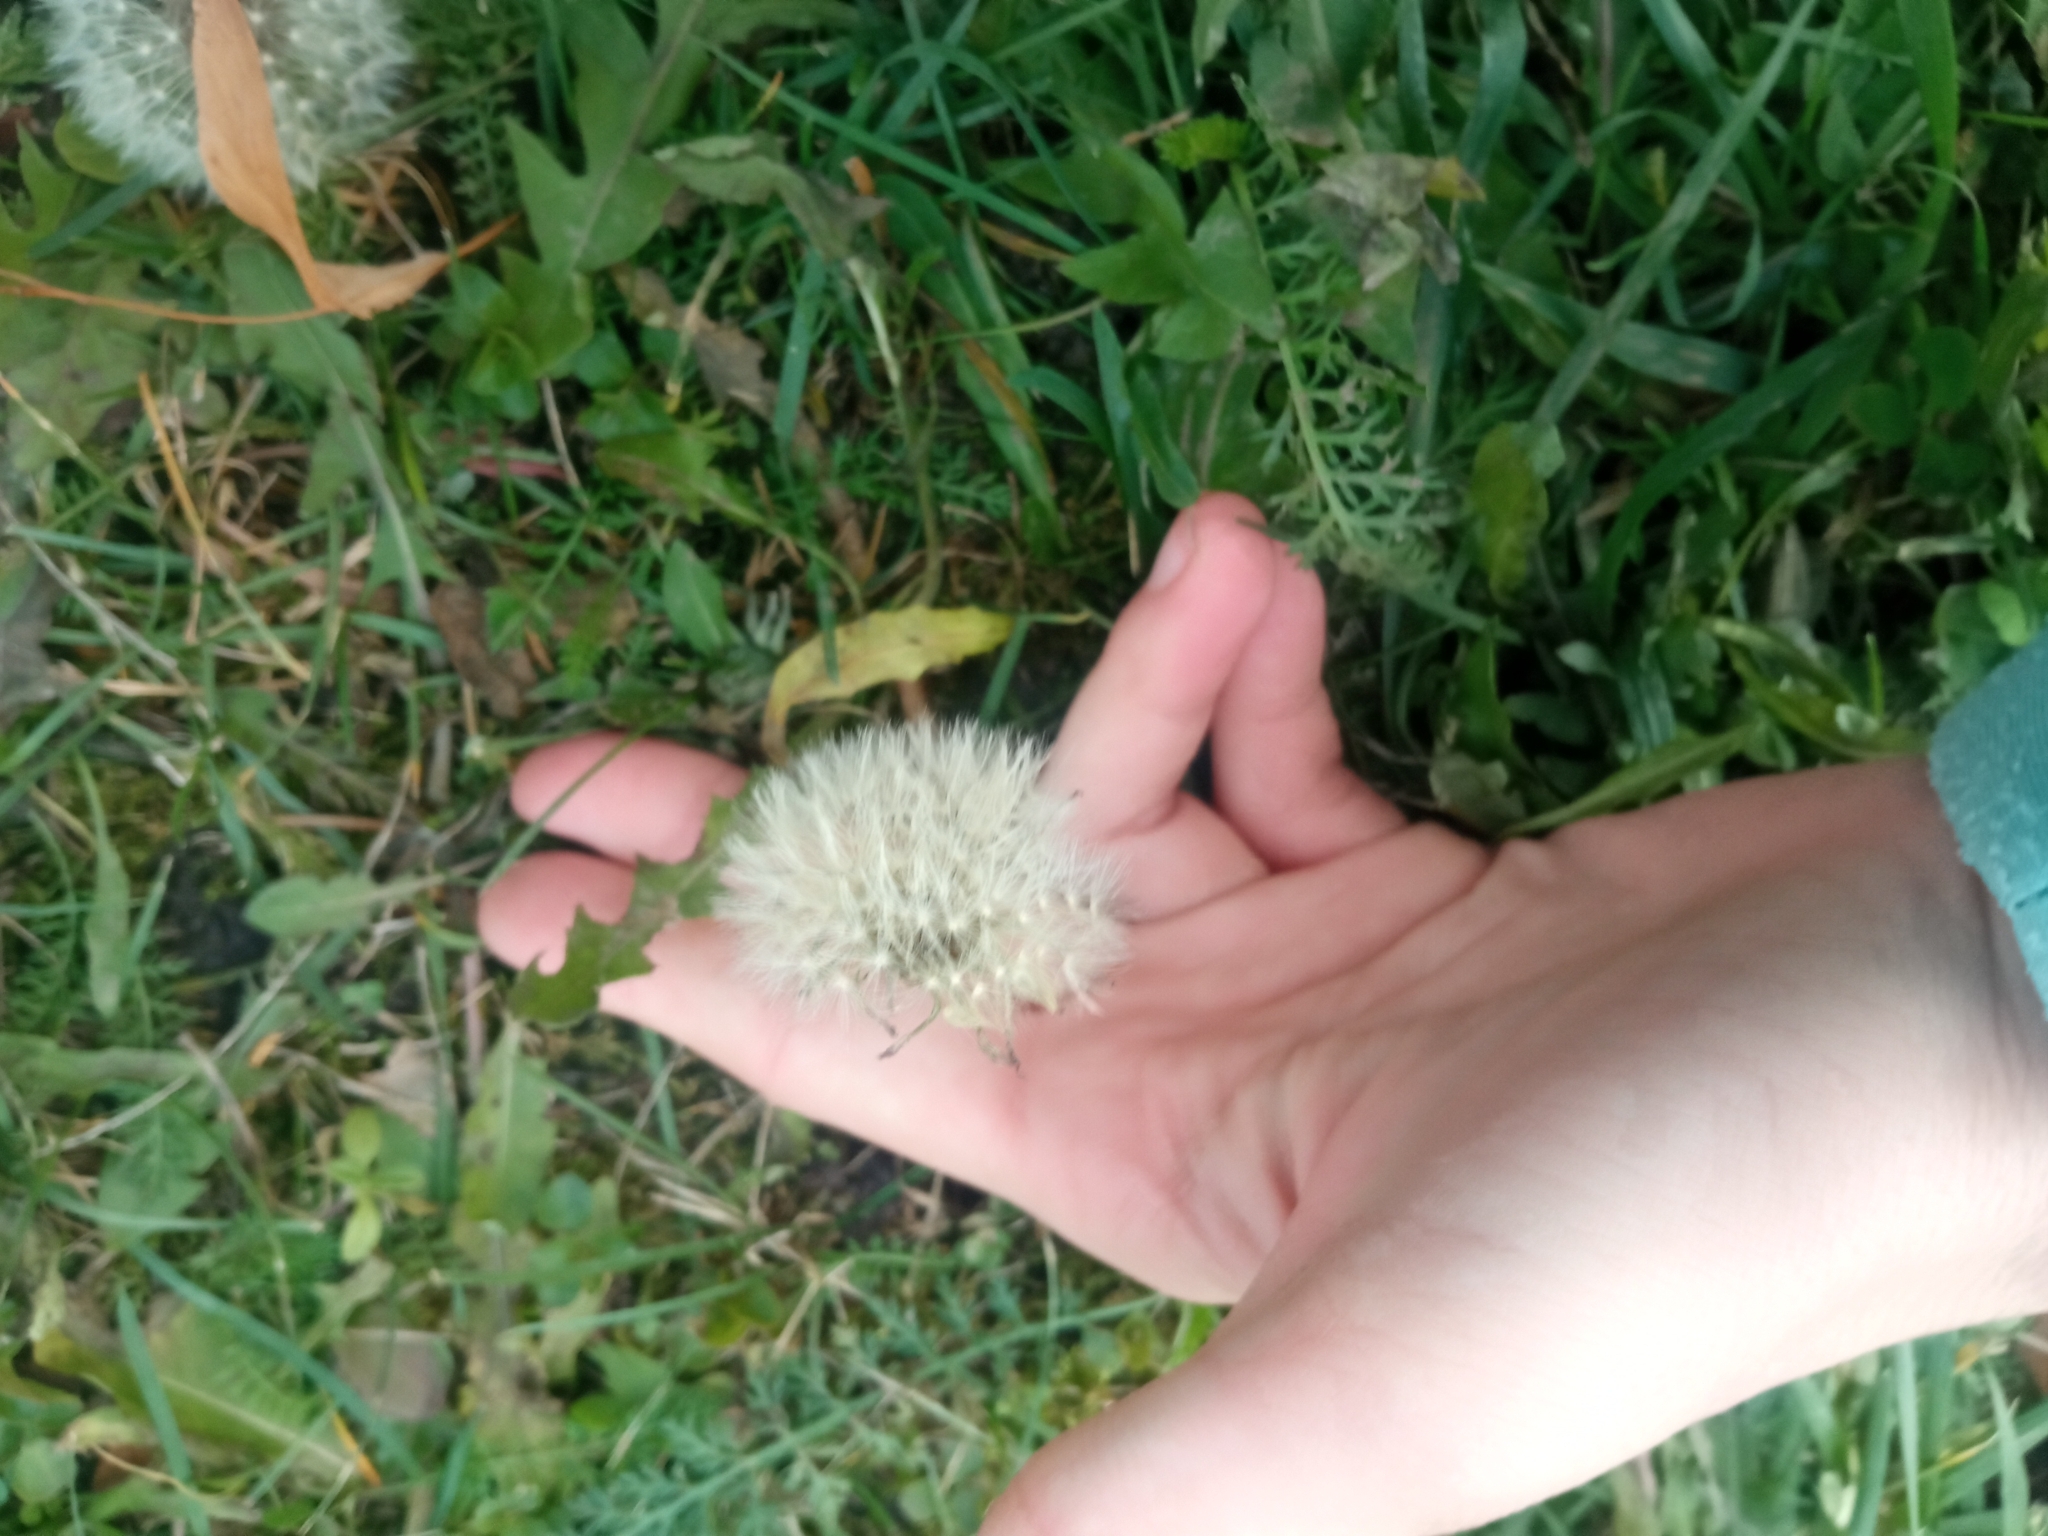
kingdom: Plantae
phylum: Tracheophyta
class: Magnoliopsida
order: Asterales
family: Asteraceae
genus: Taraxacum
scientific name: Taraxacum officinale
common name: Common dandelion
